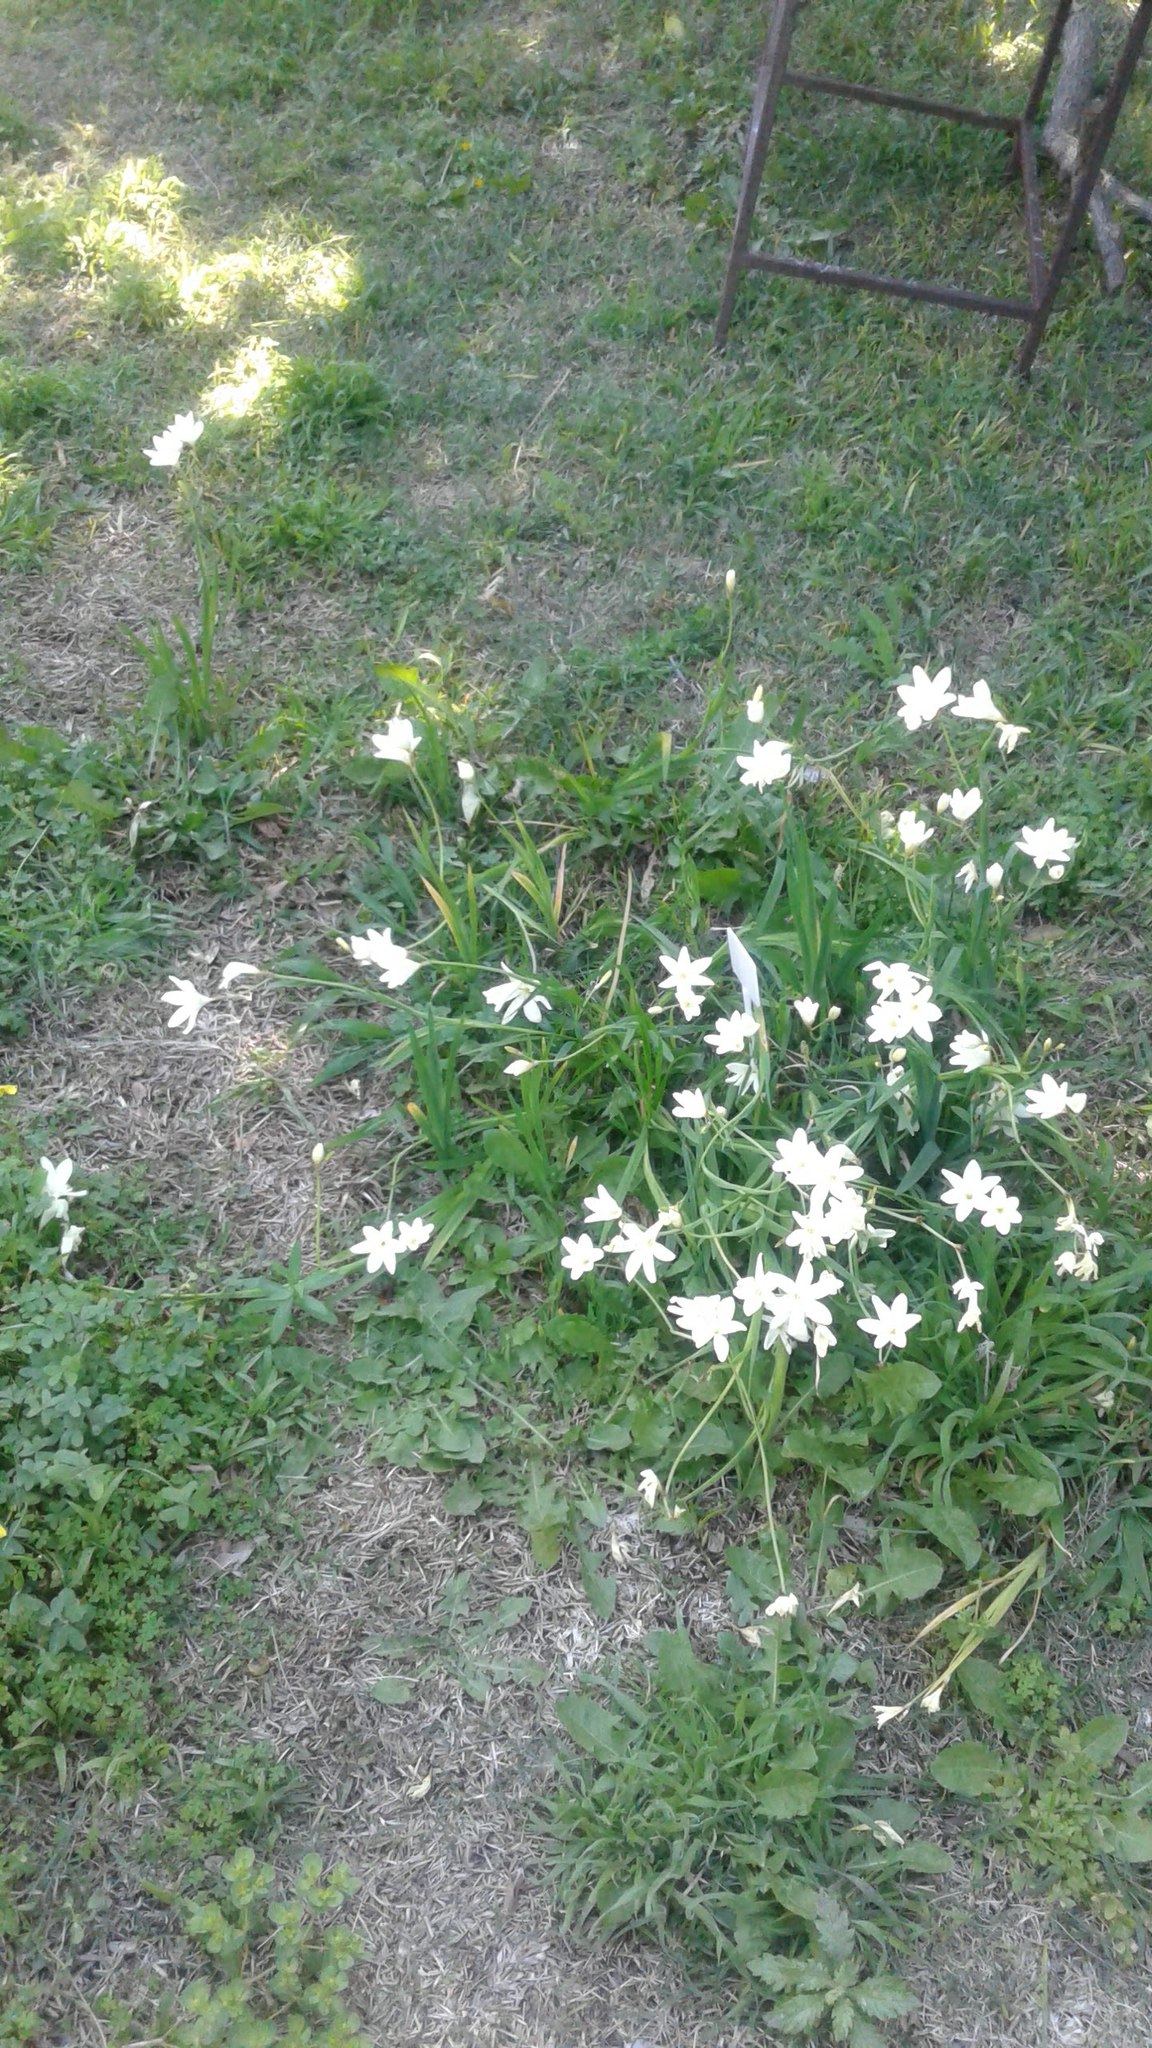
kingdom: Plantae
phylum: Tracheophyta
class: Liliopsida
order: Asparagales
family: Iridaceae
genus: Sparaxis
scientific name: Sparaxis bulbifera
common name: Harlequin-flower
